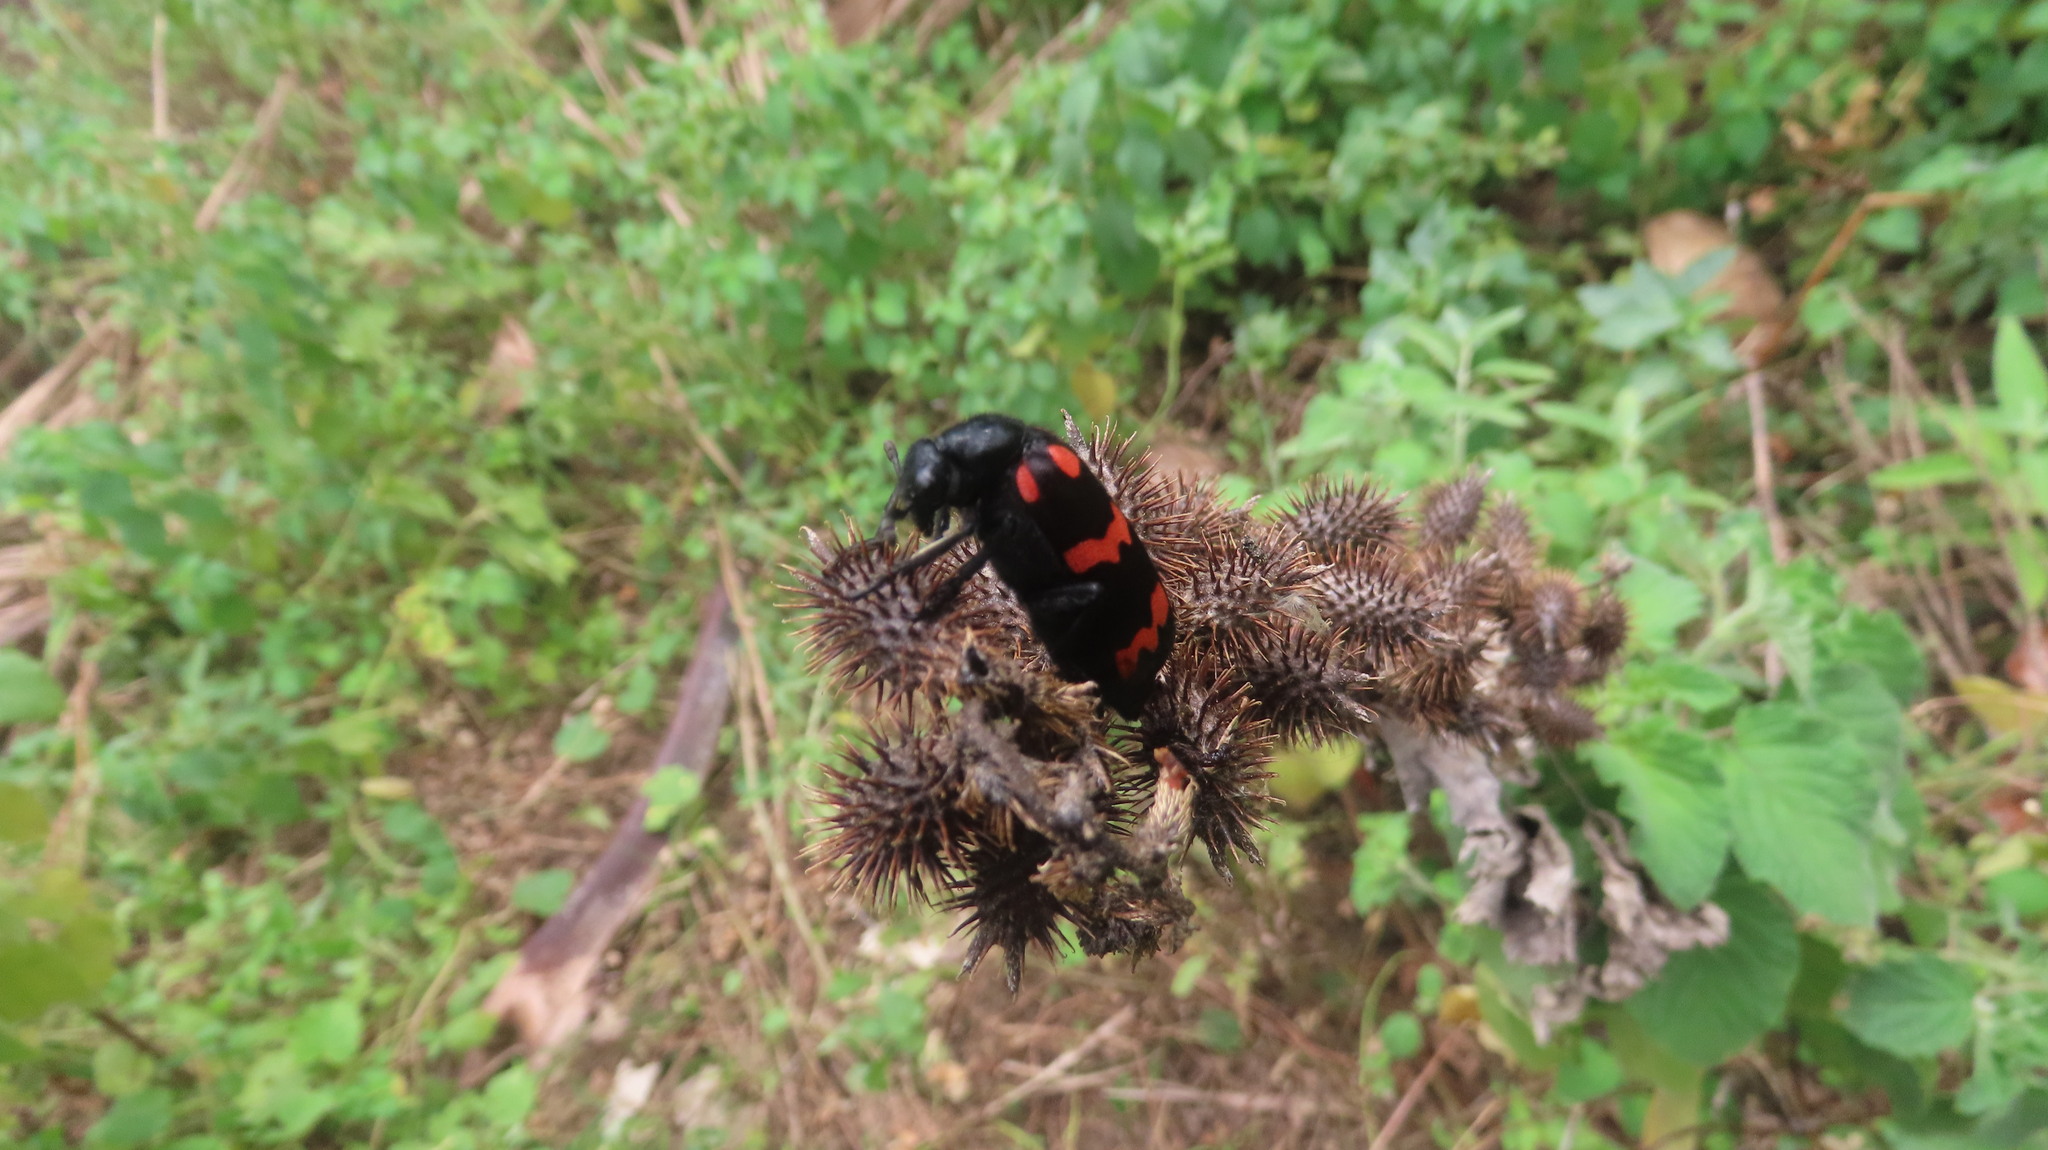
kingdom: Animalia
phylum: Arthropoda
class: Insecta
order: Coleoptera
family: Meloidae
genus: Hycleus
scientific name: Hycleus biundulatus
